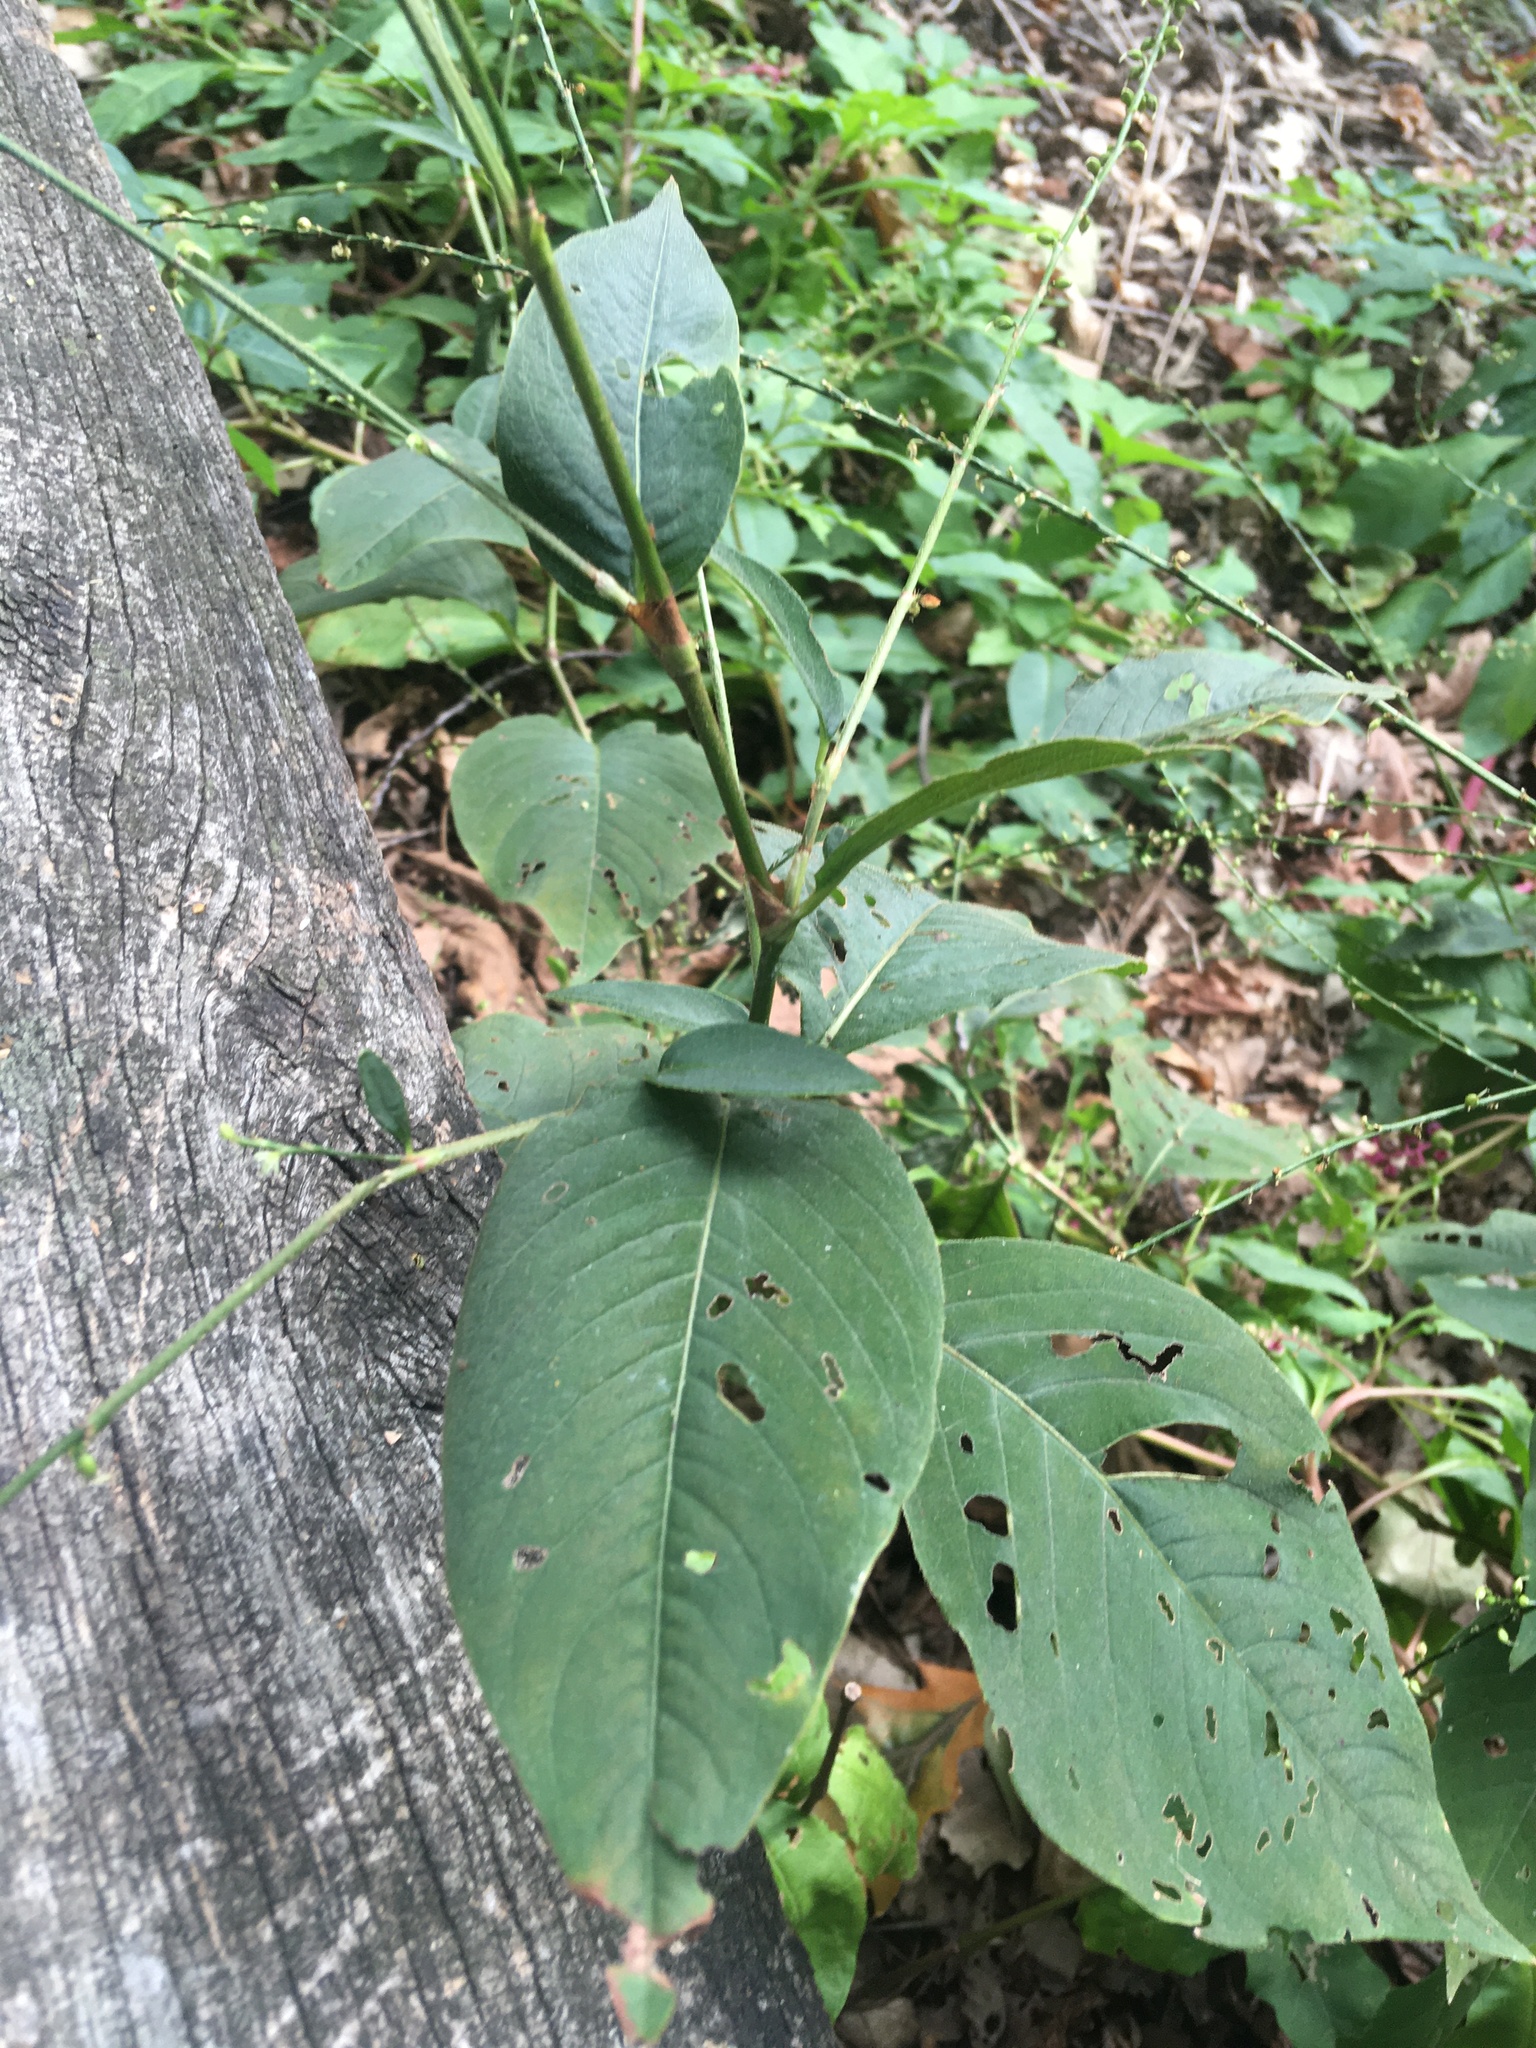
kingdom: Plantae
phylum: Tracheophyta
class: Magnoliopsida
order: Caryophyllales
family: Polygonaceae
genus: Persicaria
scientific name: Persicaria virginiana
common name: Jumpseed
